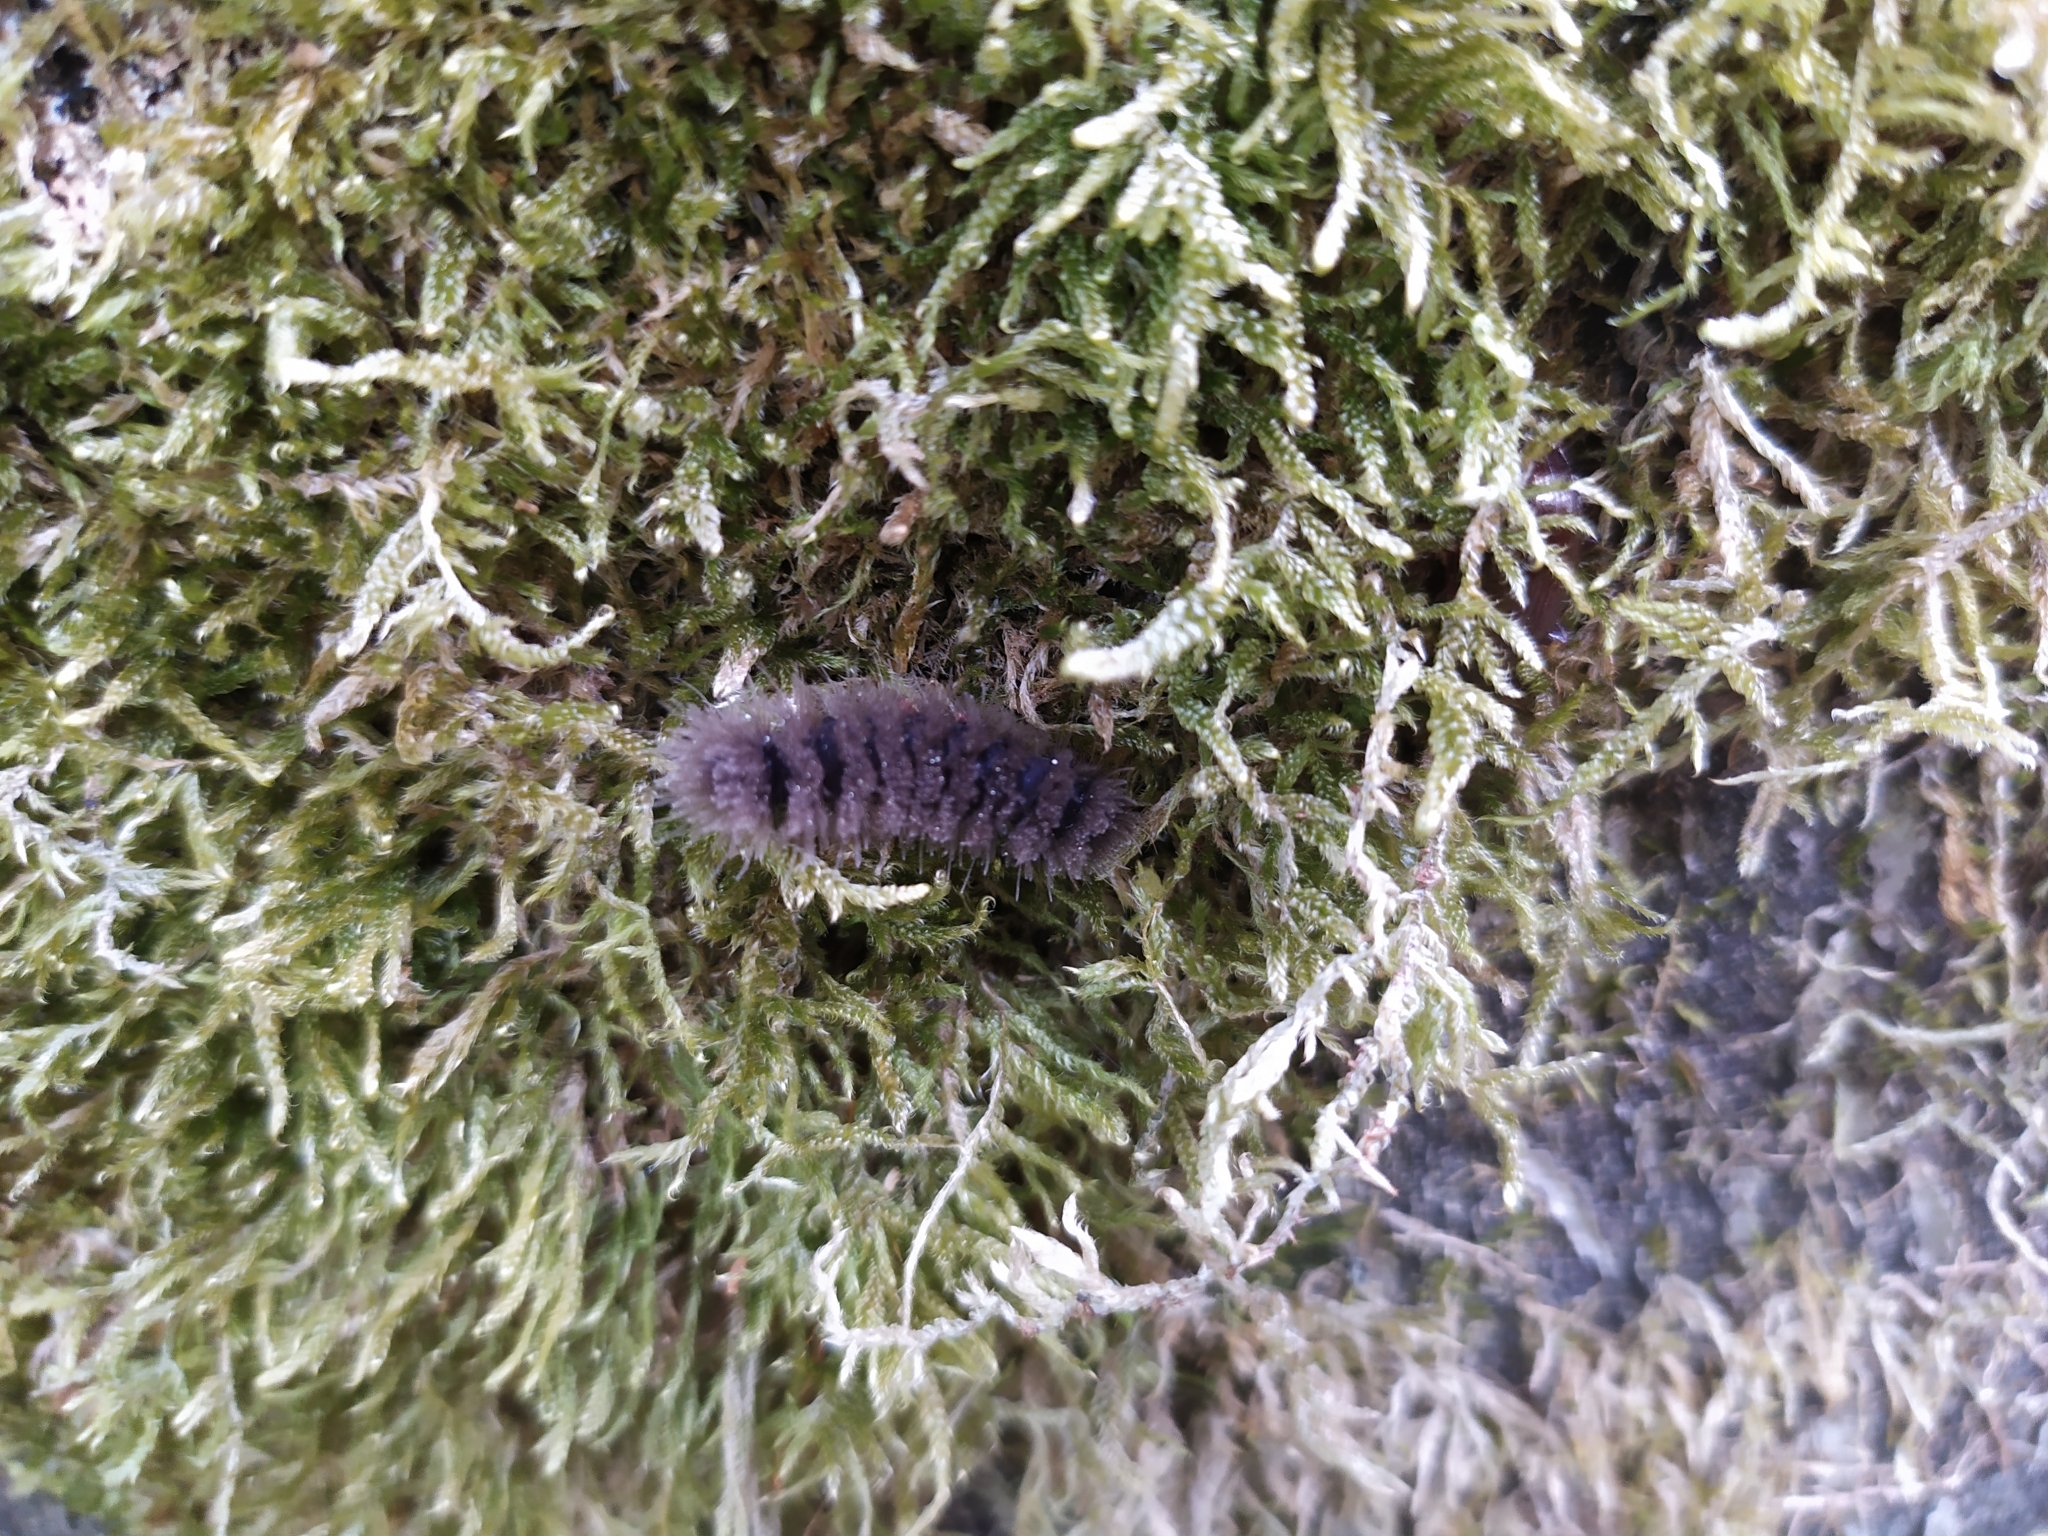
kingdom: Animalia
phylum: Arthropoda
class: Insecta
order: Lepidoptera
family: Erebidae
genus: Amata
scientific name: Amata phegea
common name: Nine-spotted
